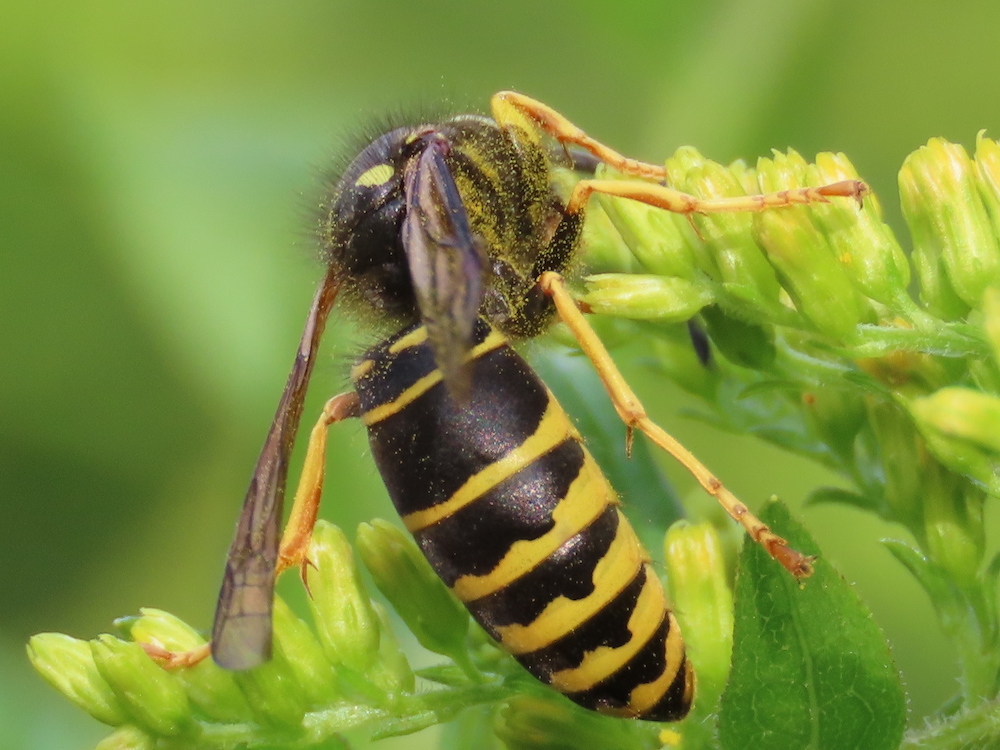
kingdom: Animalia
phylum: Arthropoda
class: Insecta
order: Hymenoptera
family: Vespidae
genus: Vespula
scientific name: Vespula vidua
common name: Widow yellowjacket
